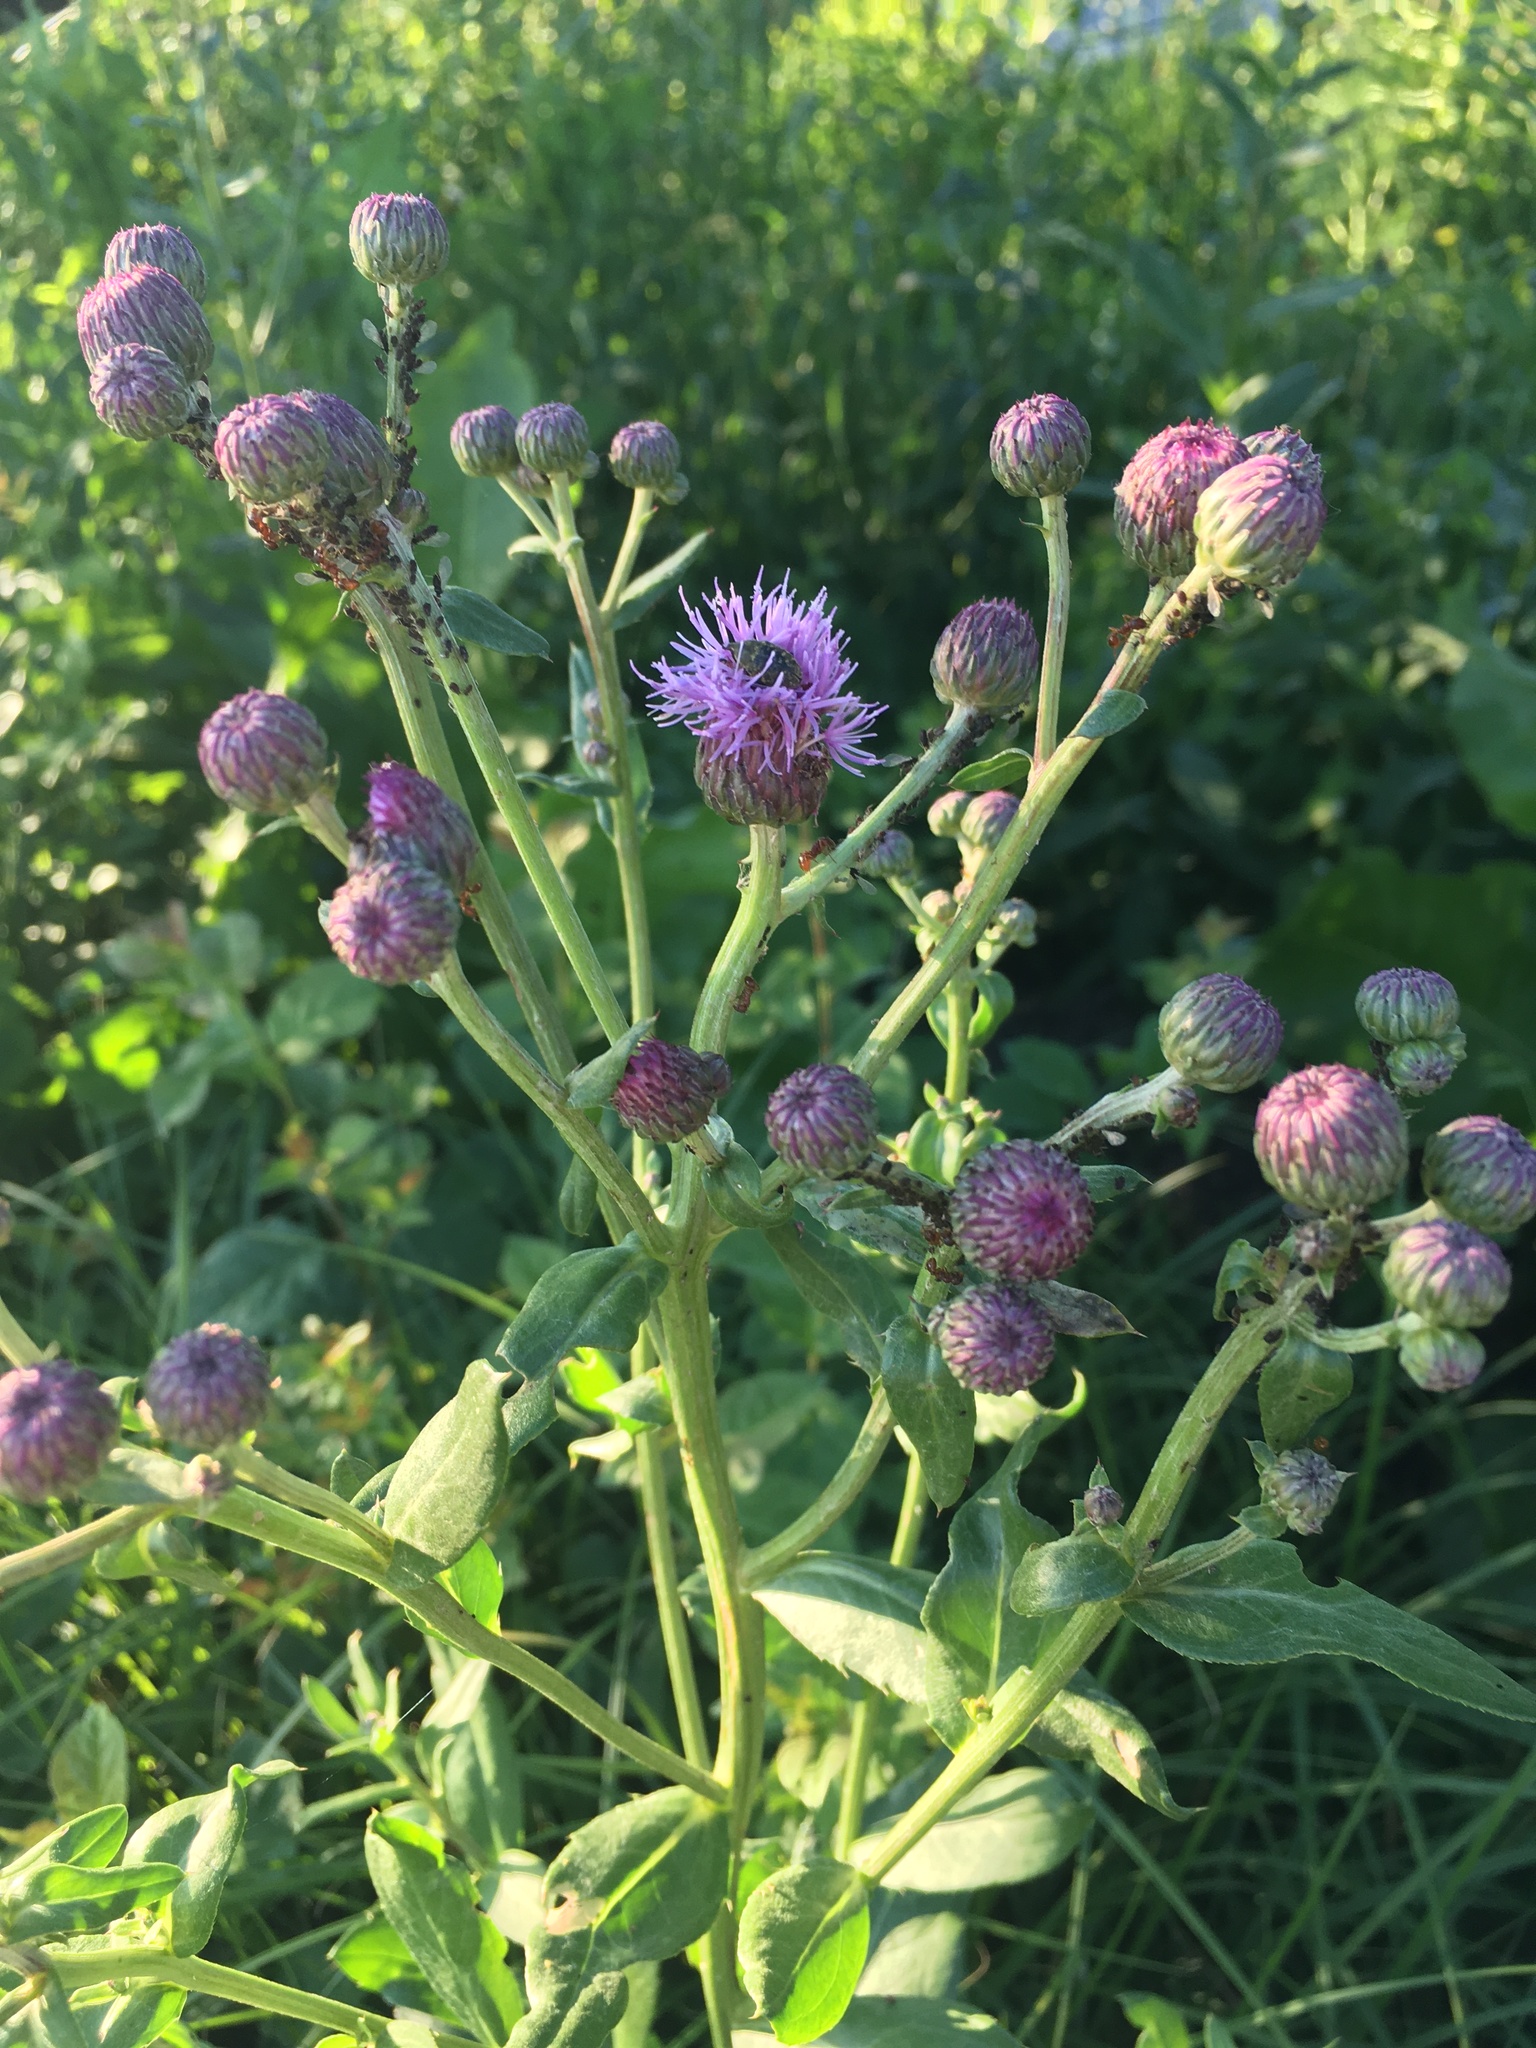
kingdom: Plantae
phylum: Tracheophyta
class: Magnoliopsida
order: Asterales
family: Asteraceae
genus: Cirsium
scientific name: Cirsium arvense
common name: Creeping thistle
